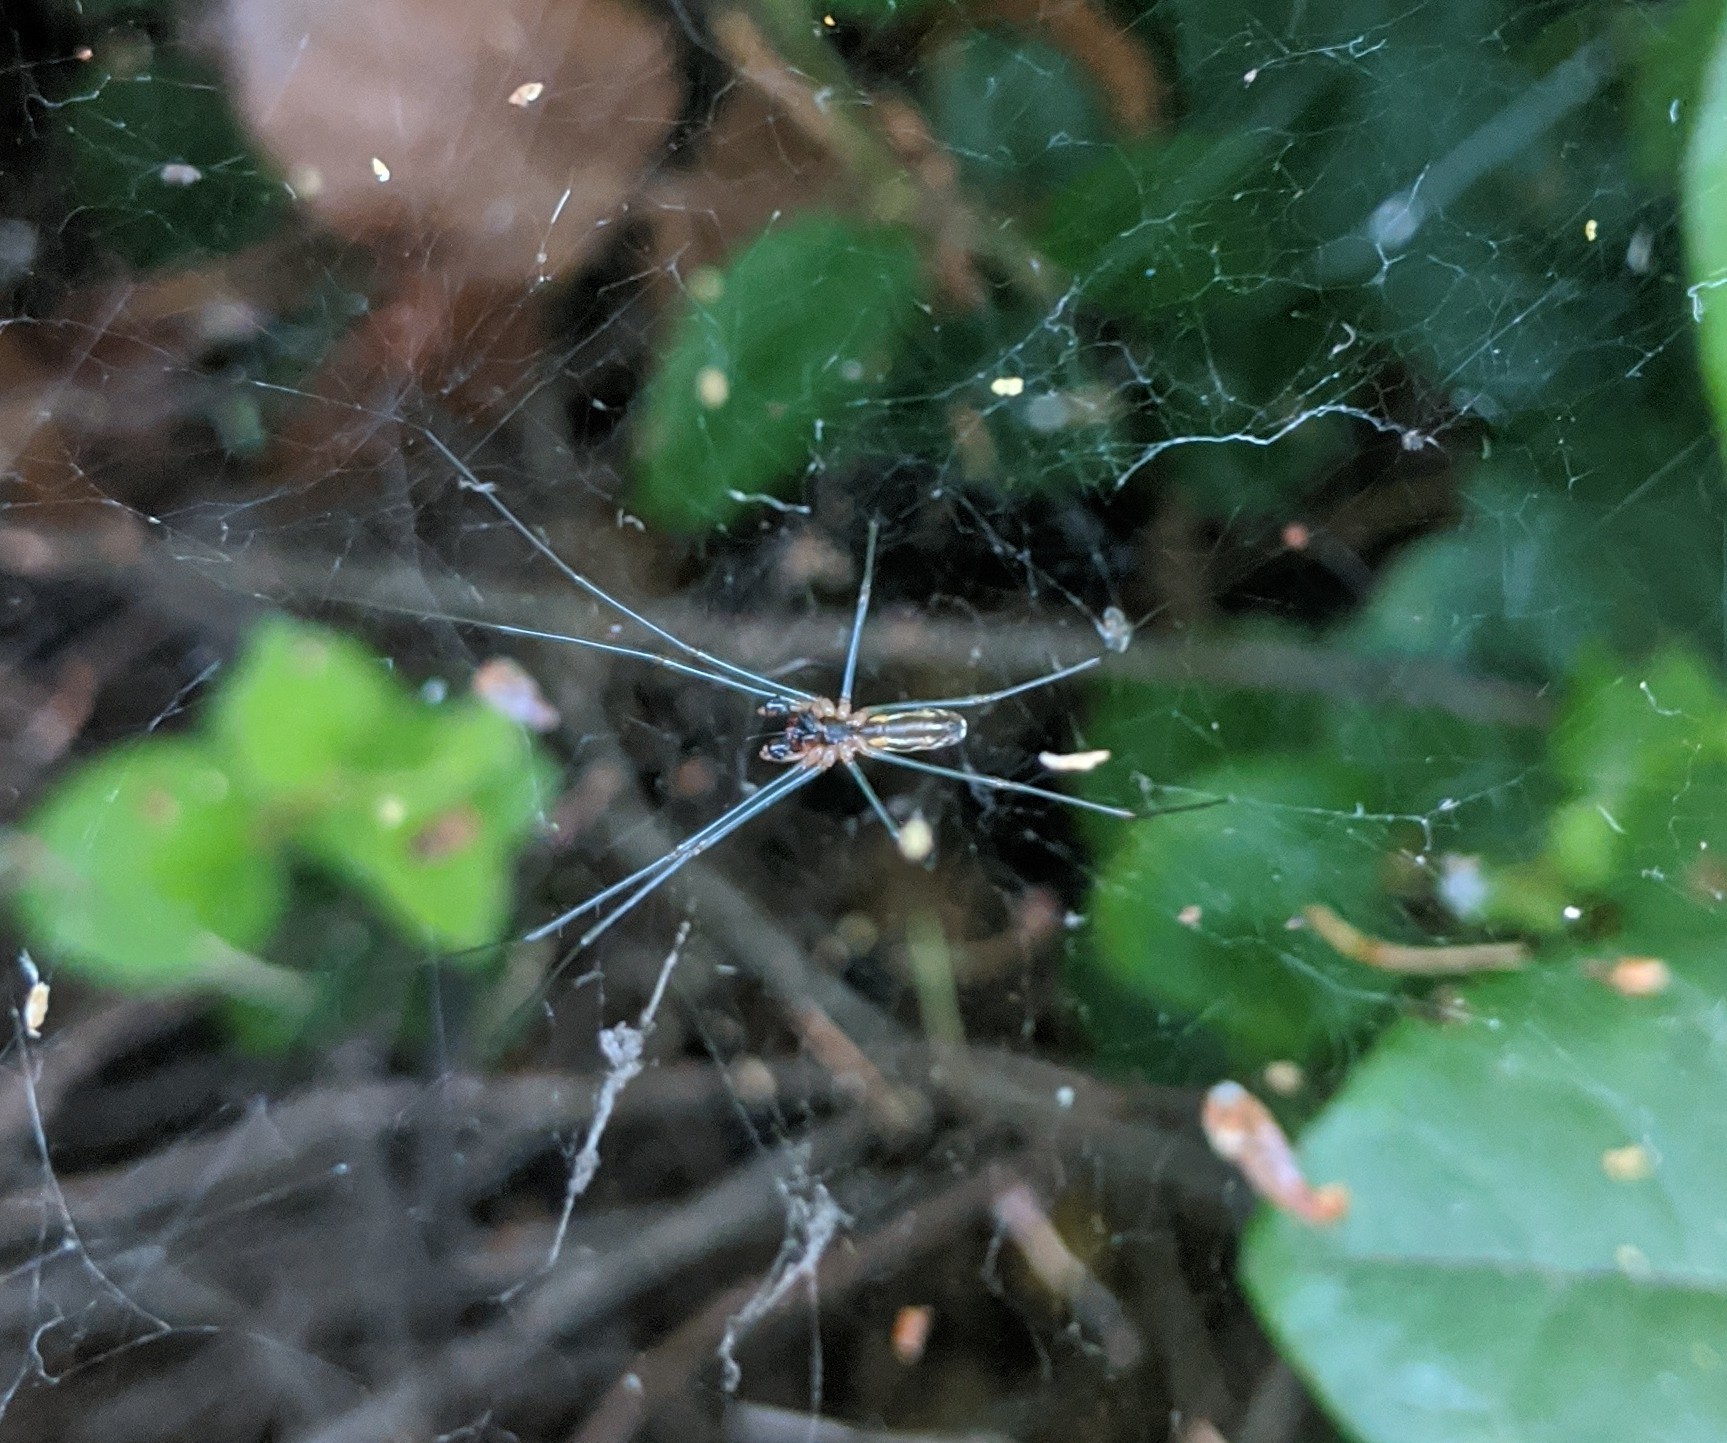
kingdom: Animalia
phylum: Arthropoda
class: Arachnida
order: Araneae
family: Linyphiidae
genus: Neriene
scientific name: Neriene litigiosa
